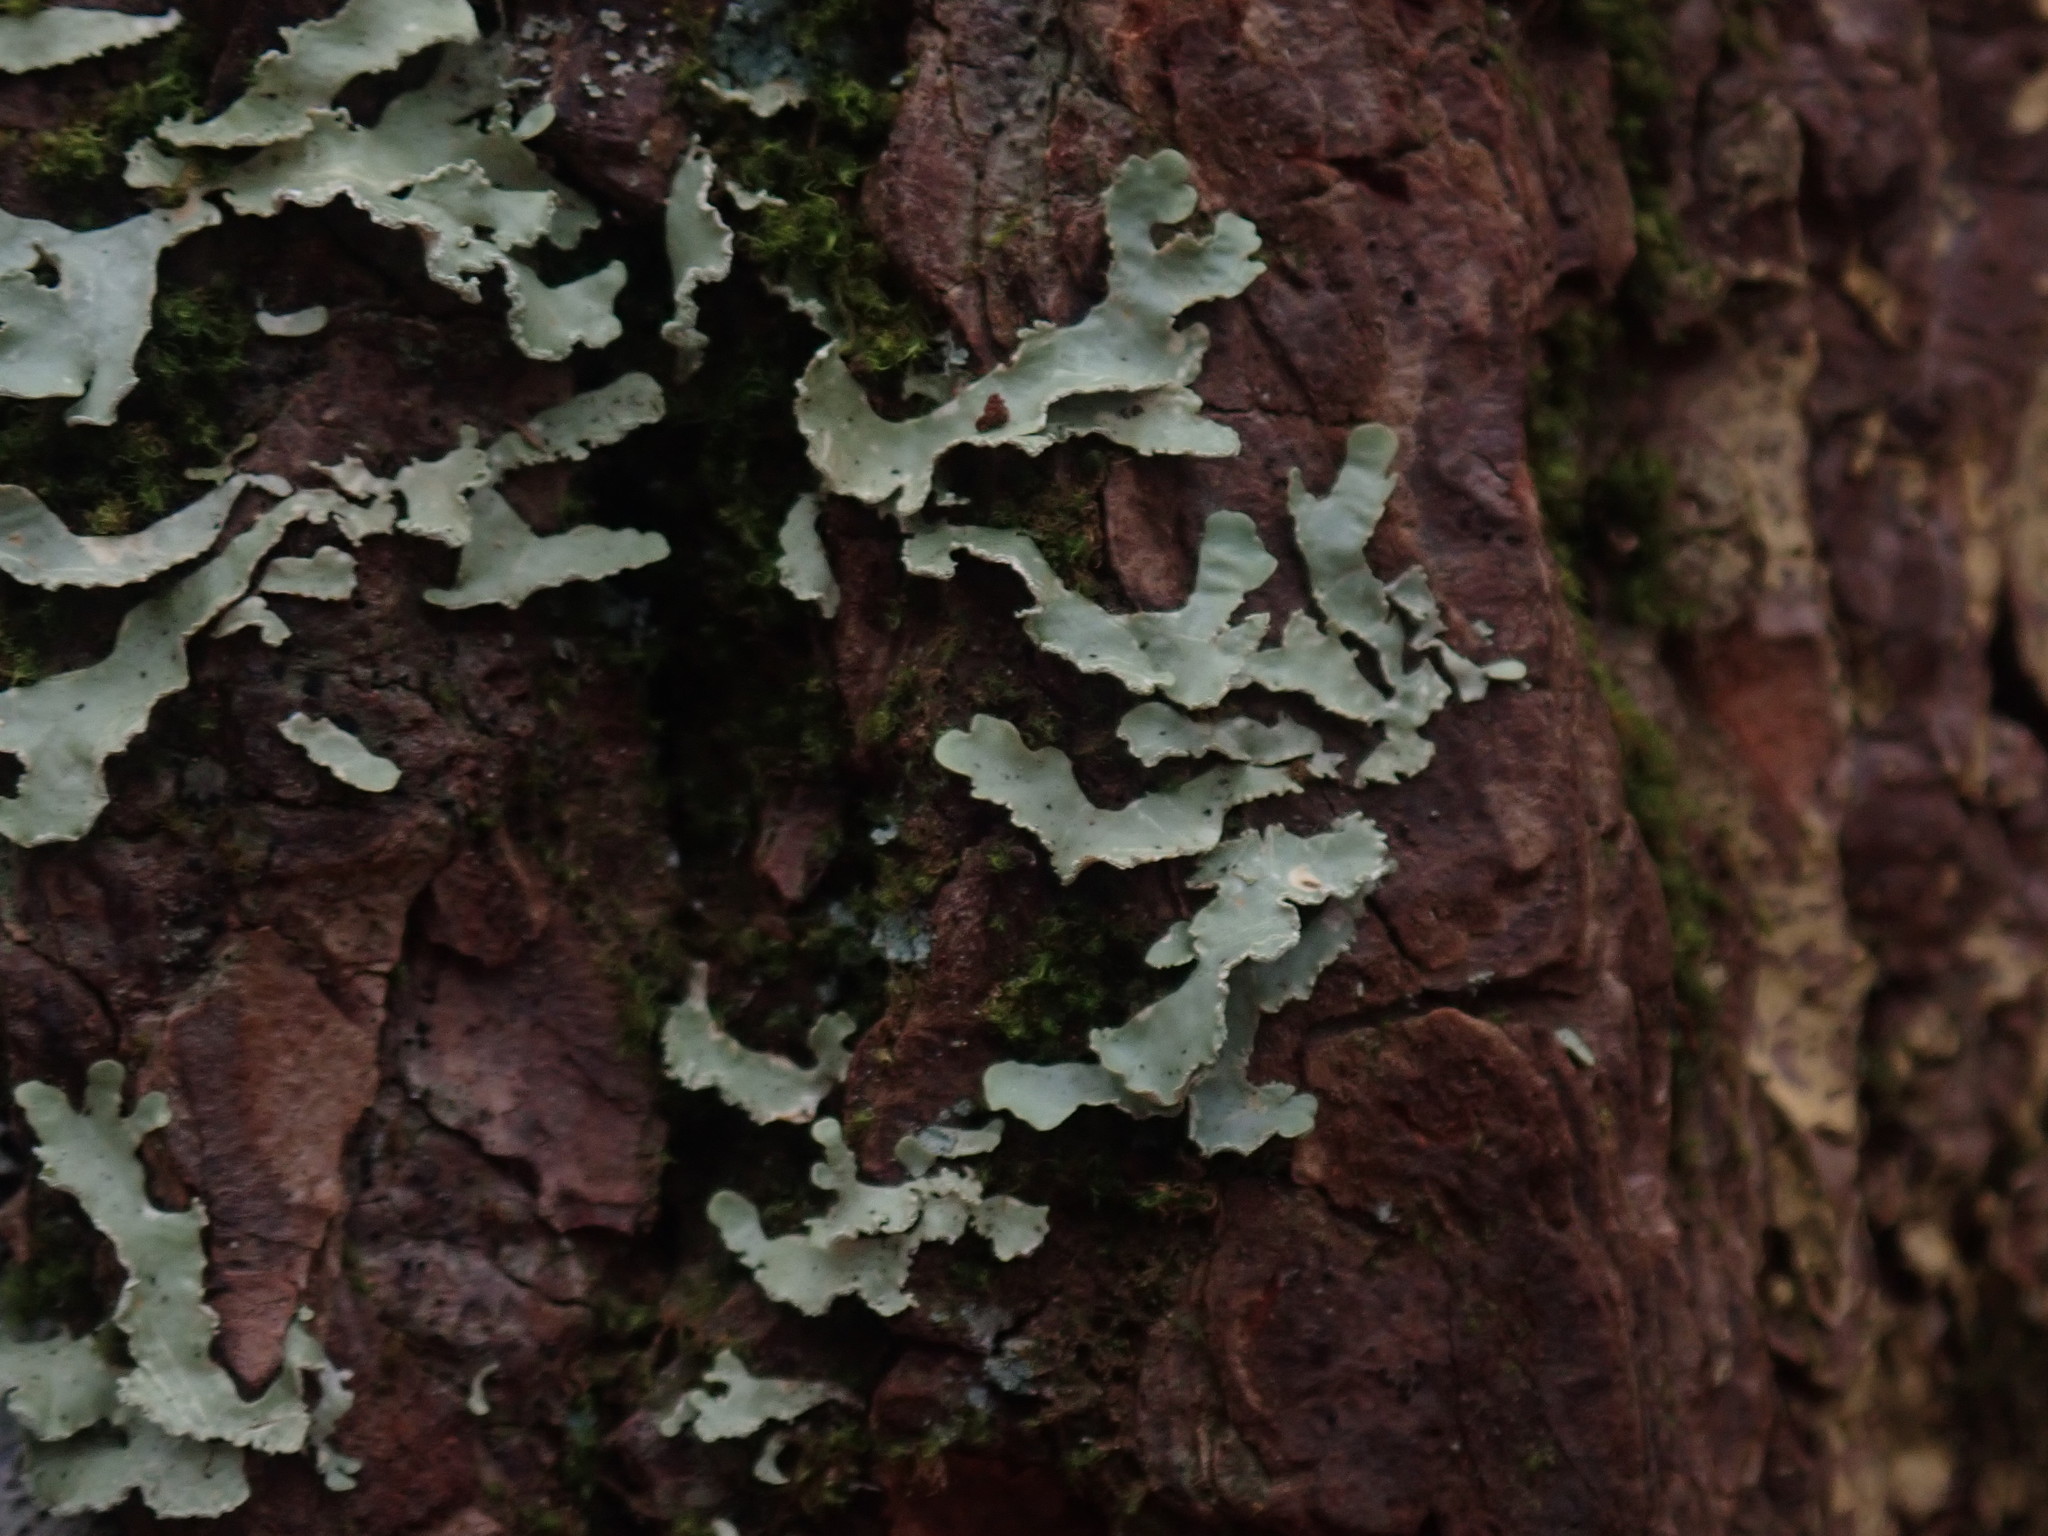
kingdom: Fungi
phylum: Ascomycota
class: Lecanoromycetes
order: Lecanorales
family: Parmeliaceae
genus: Usnocetraria
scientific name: Usnocetraria oakesiana
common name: Yellow ribbon lichen
